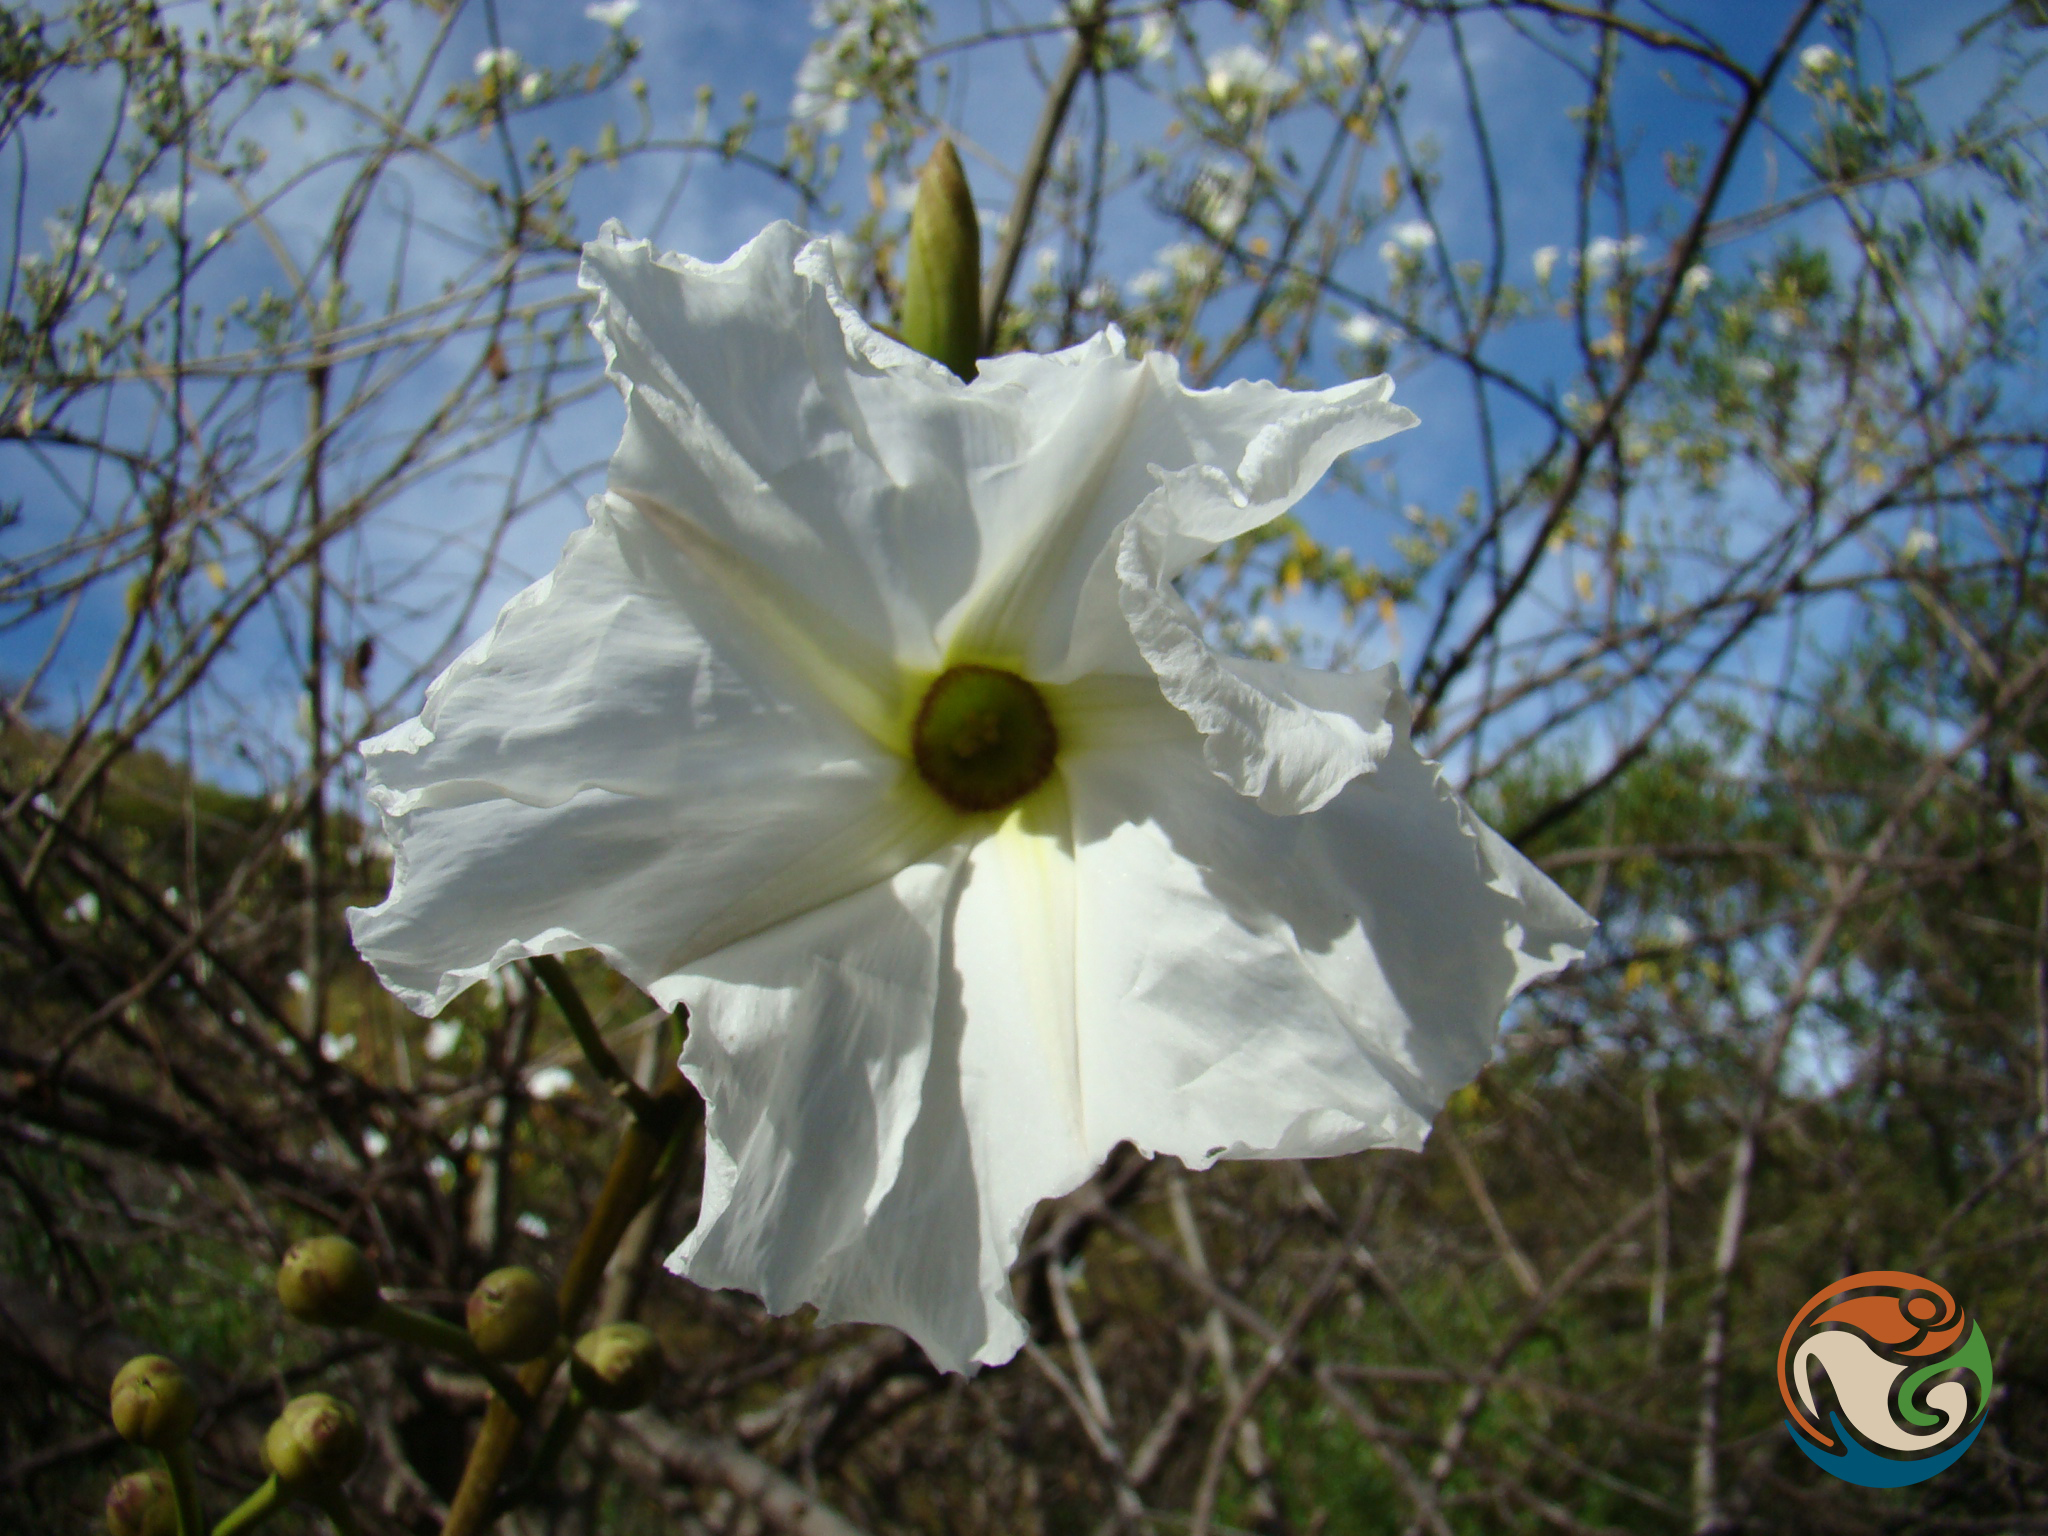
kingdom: Plantae
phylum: Tracheophyta
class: Magnoliopsida
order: Solanales
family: Convolvulaceae
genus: Ipomoea
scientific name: Ipomoea pauciflora
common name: Tree morningglory
